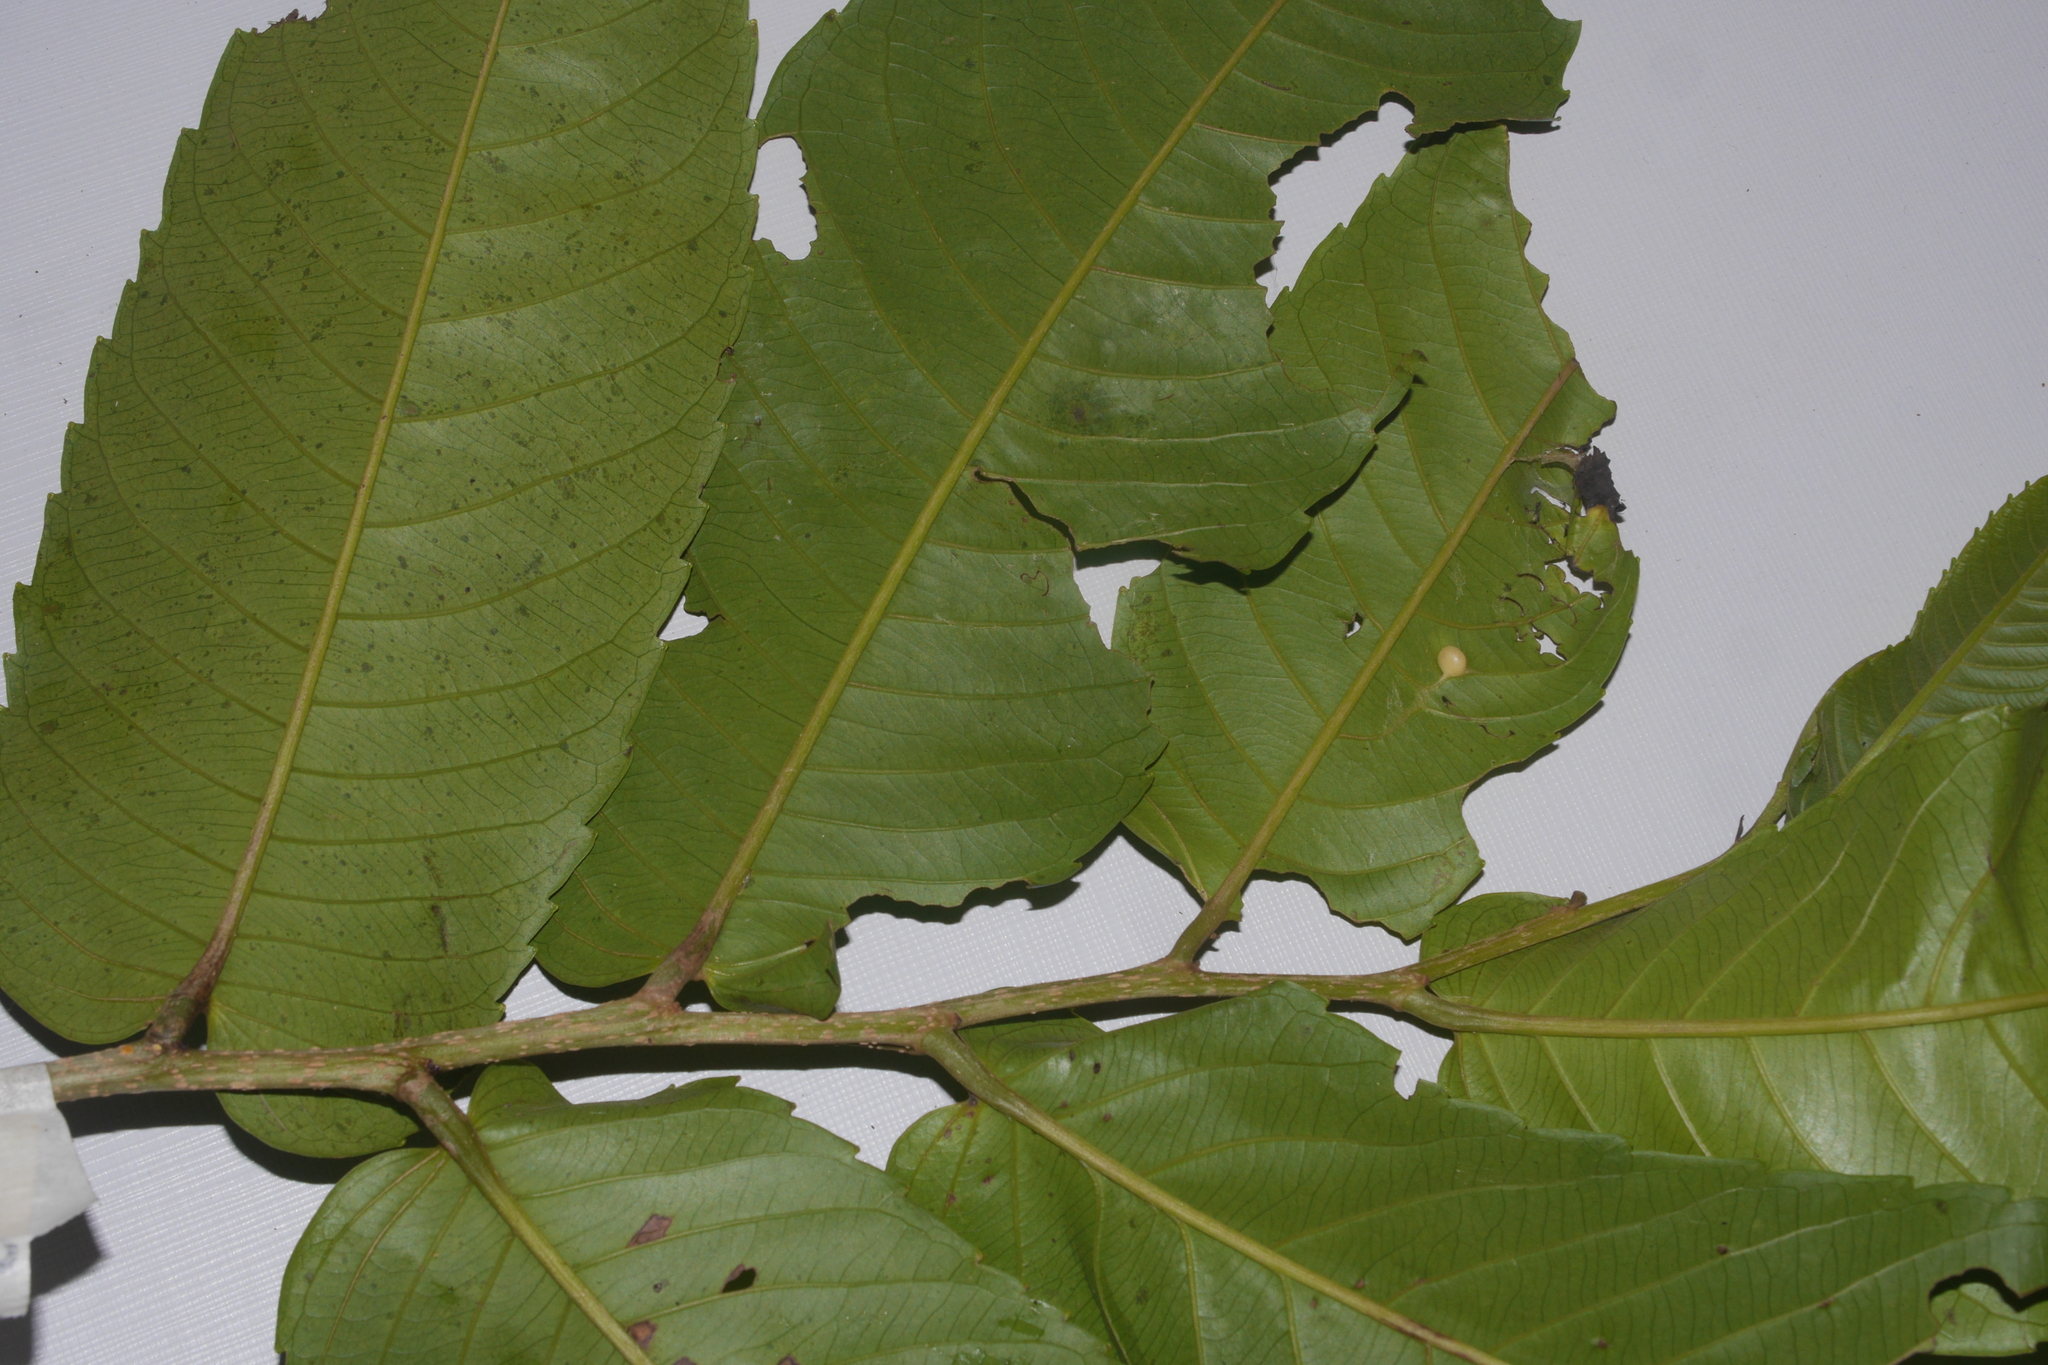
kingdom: Plantae
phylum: Tracheophyta
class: Magnoliopsida
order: Malpighiales
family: Salicaceae
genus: Banara
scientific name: Banara guianensis
